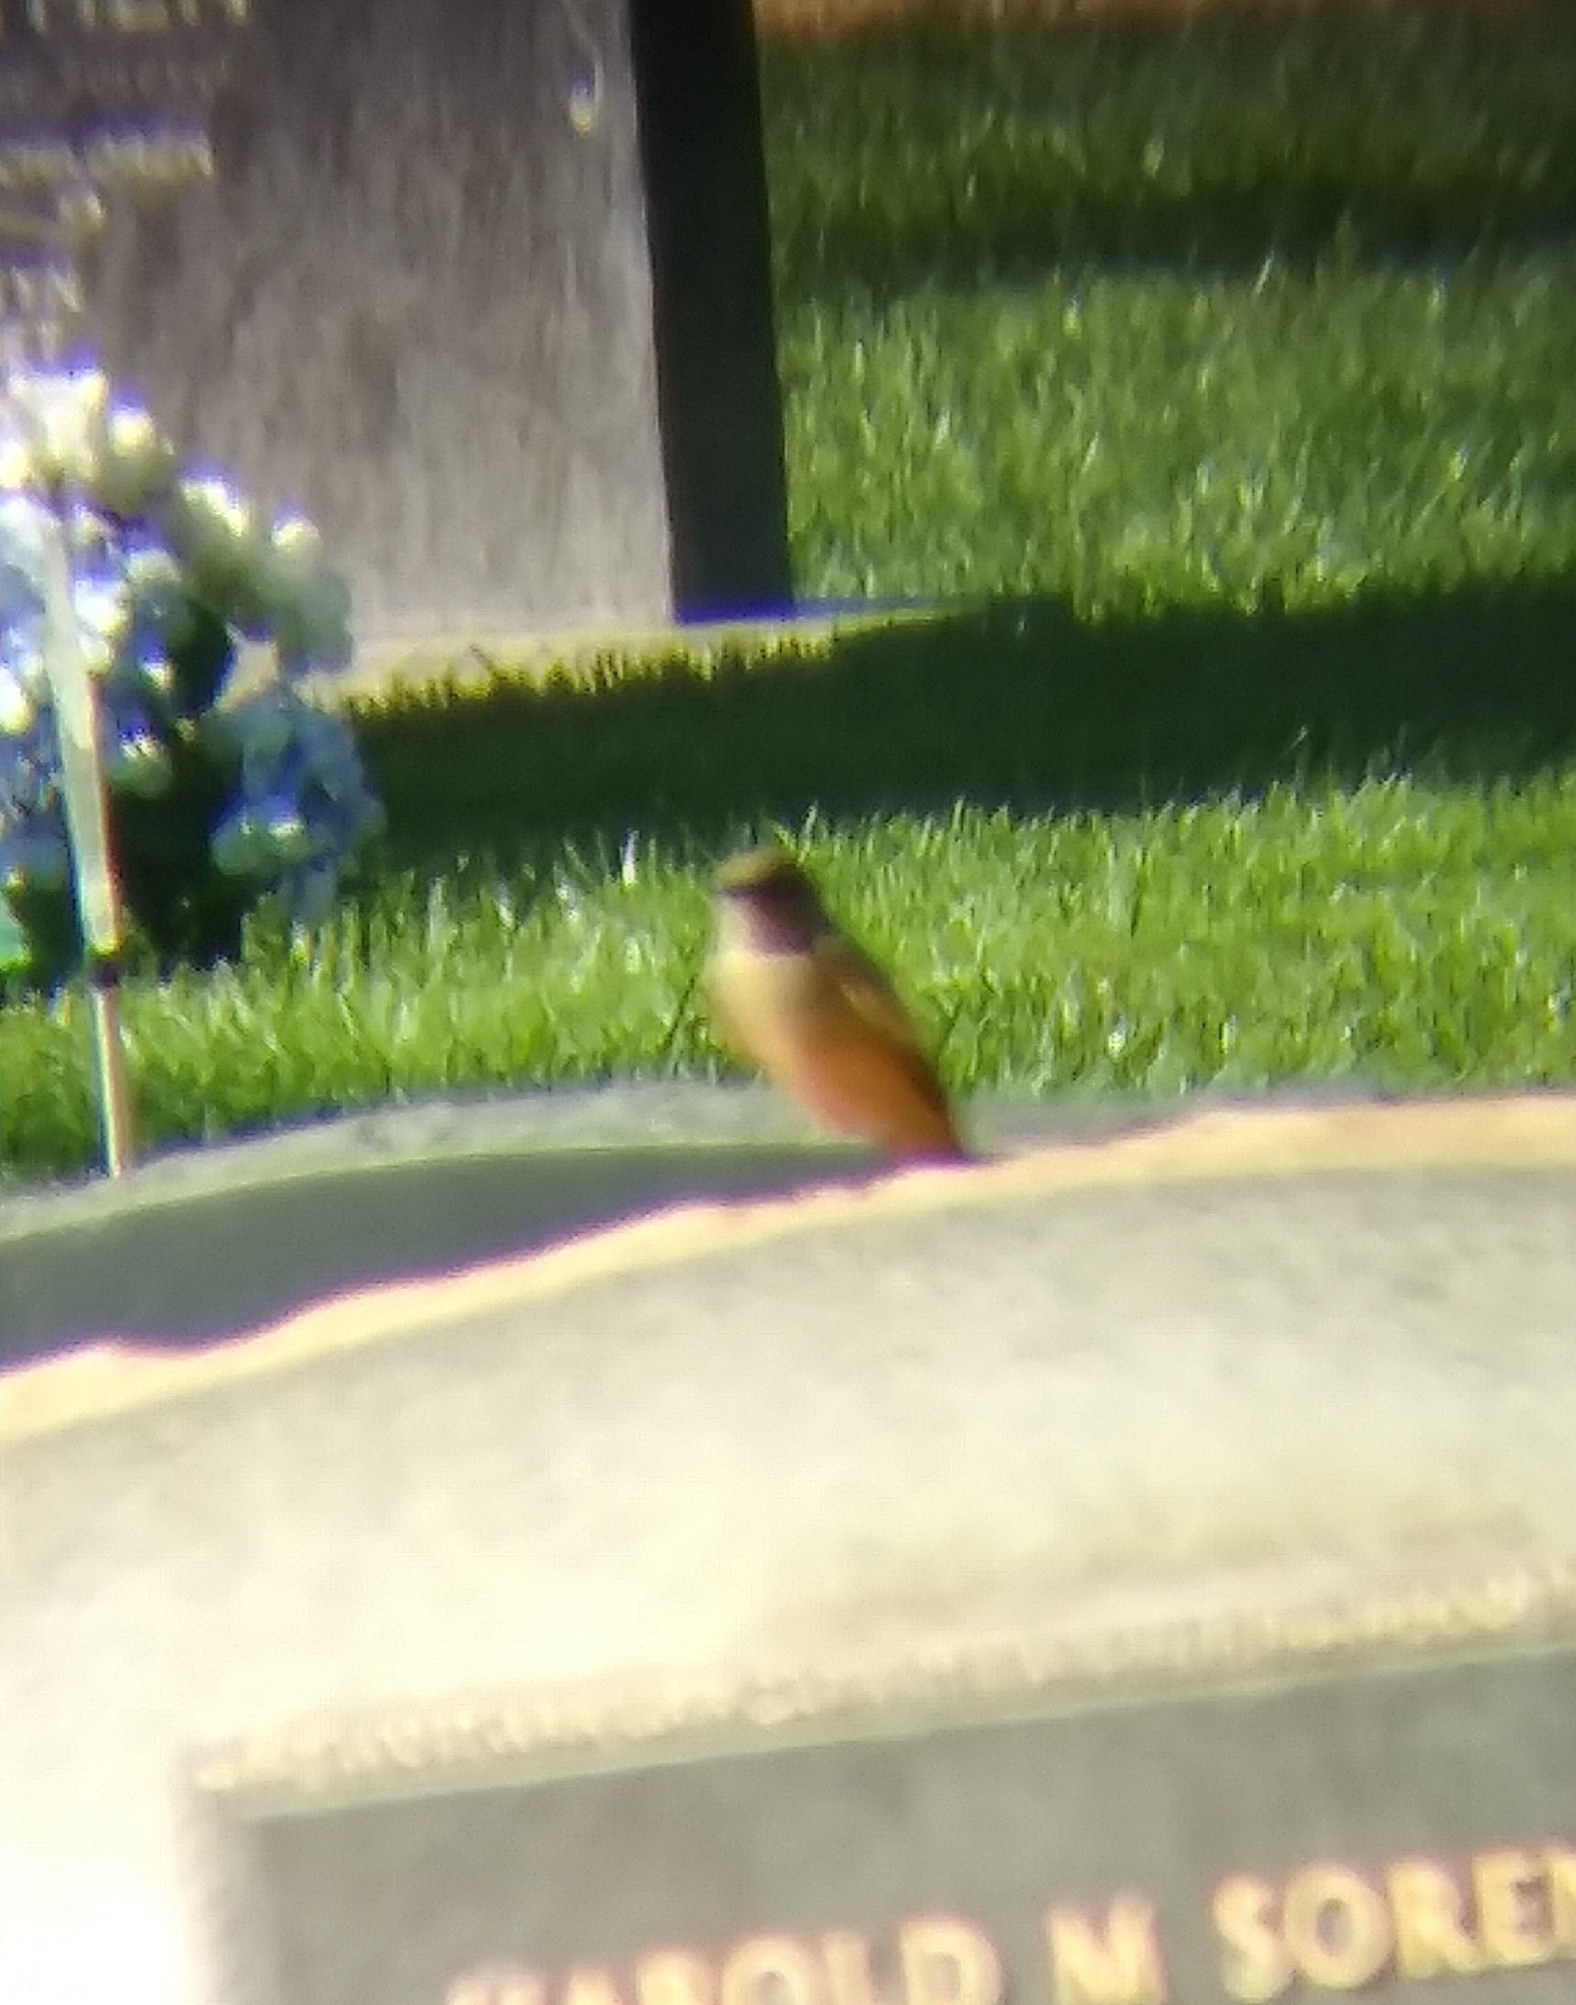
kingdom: Animalia
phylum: Chordata
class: Aves
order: Passeriformes
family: Tyrannidae
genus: Sayornis
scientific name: Sayornis saya
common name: Say's phoebe
